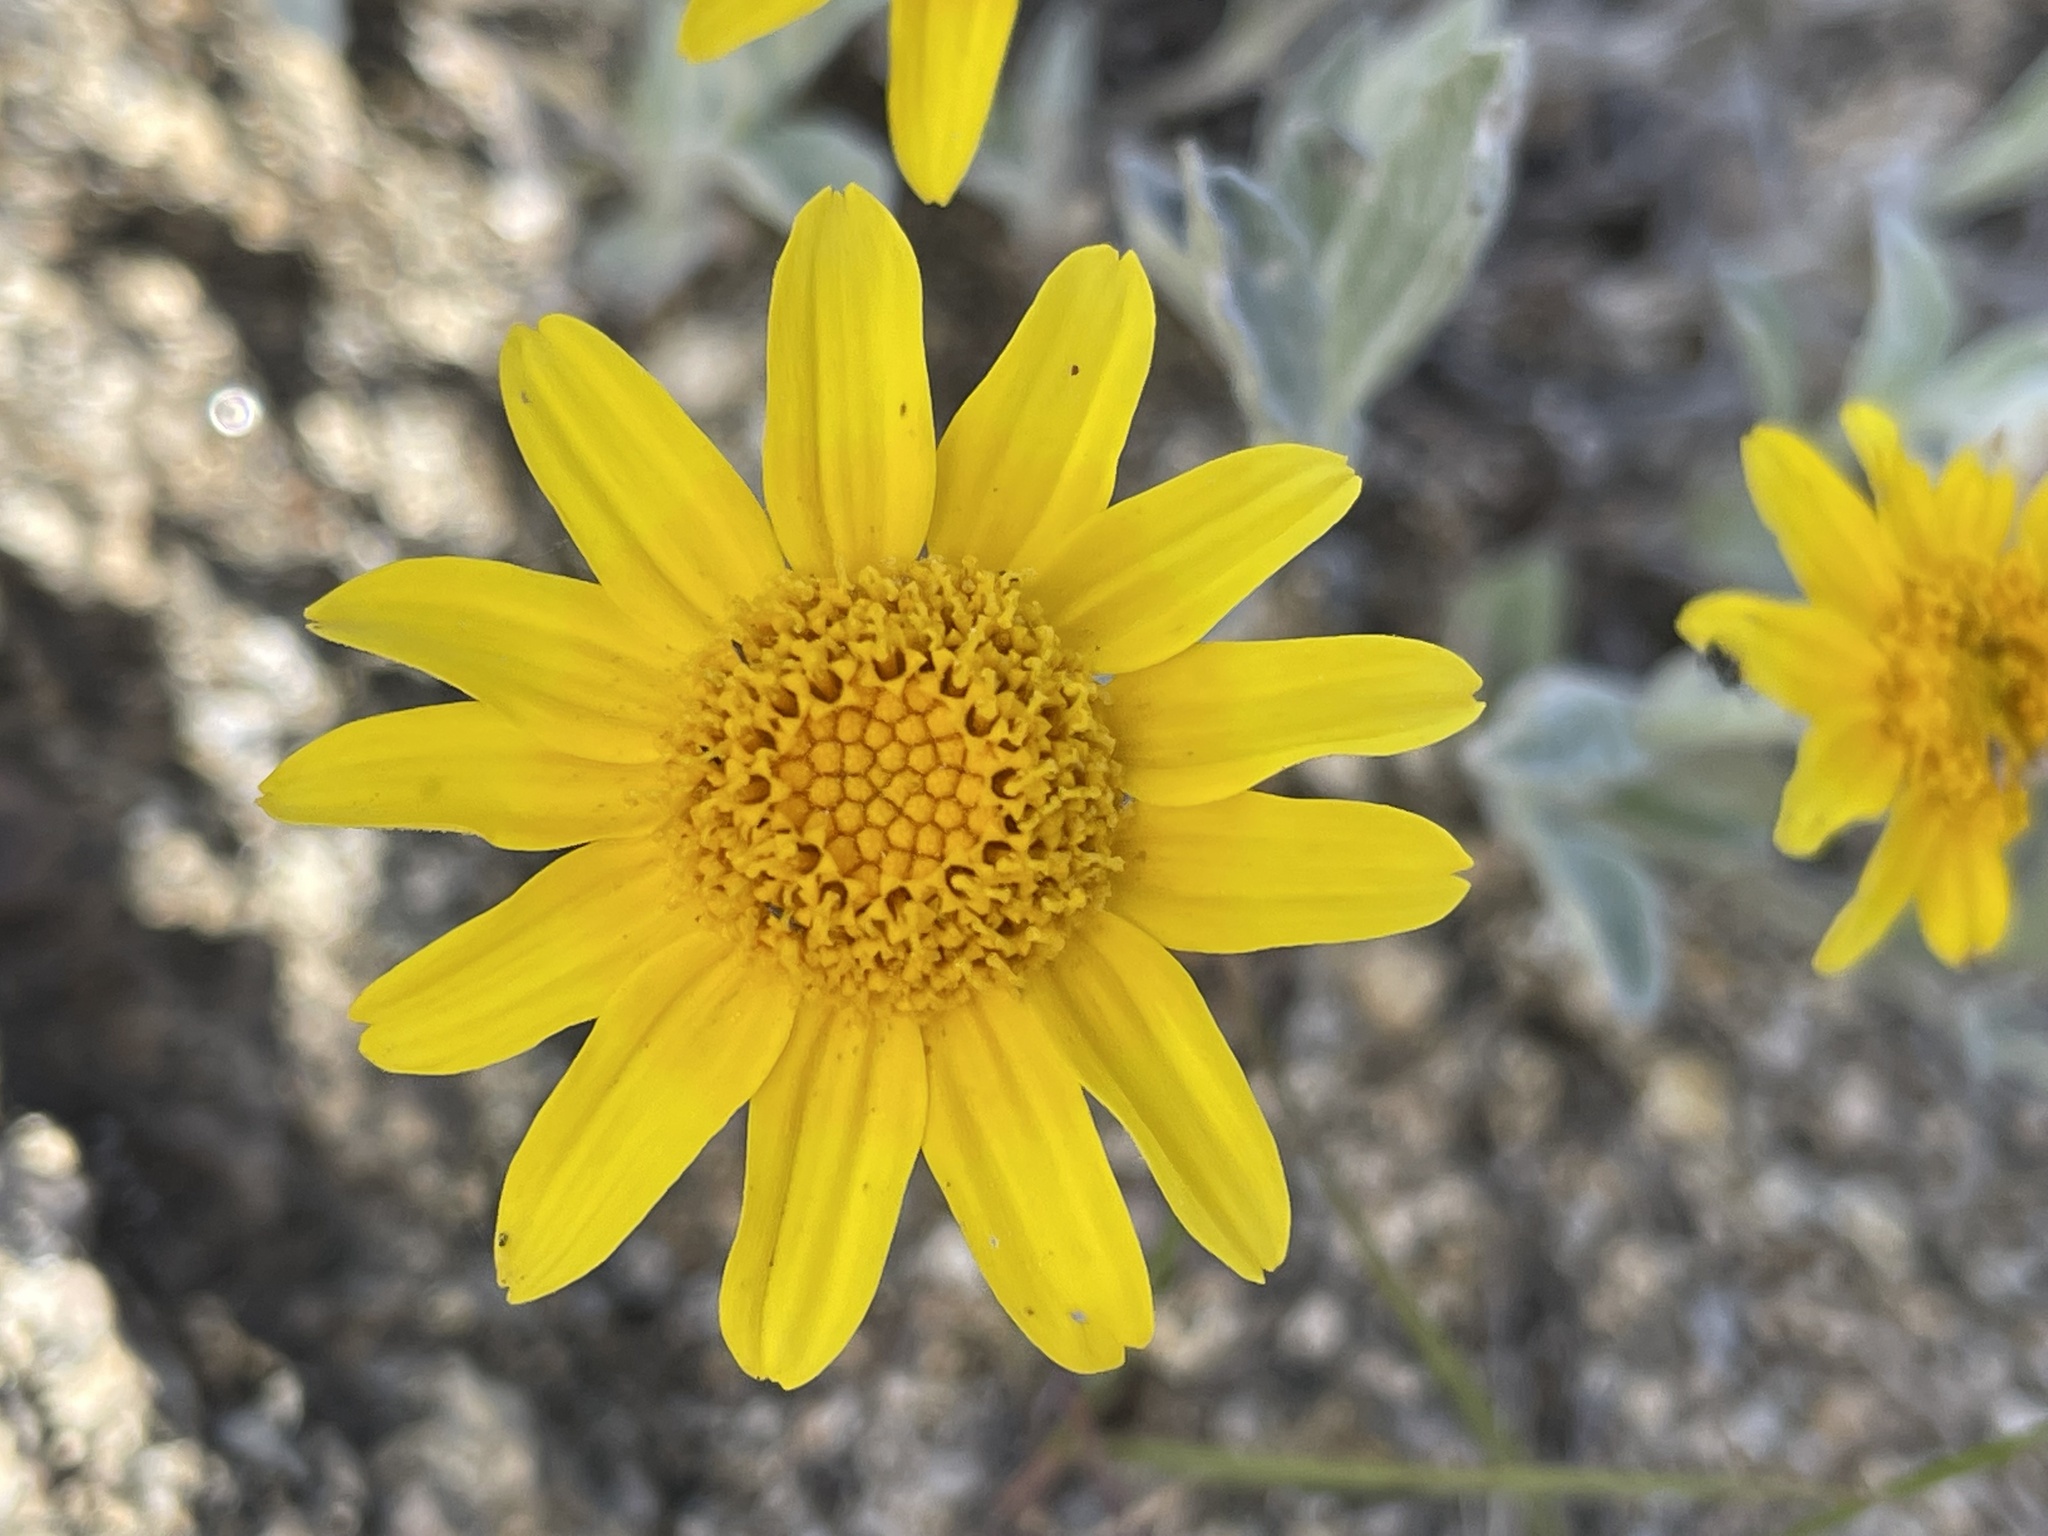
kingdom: Plantae
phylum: Tracheophyta
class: Magnoliopsida
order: Asterales
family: Asteraceae
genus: Eriophyllum
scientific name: Eriophyllum lanatum
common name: Common woolly-sunflower
